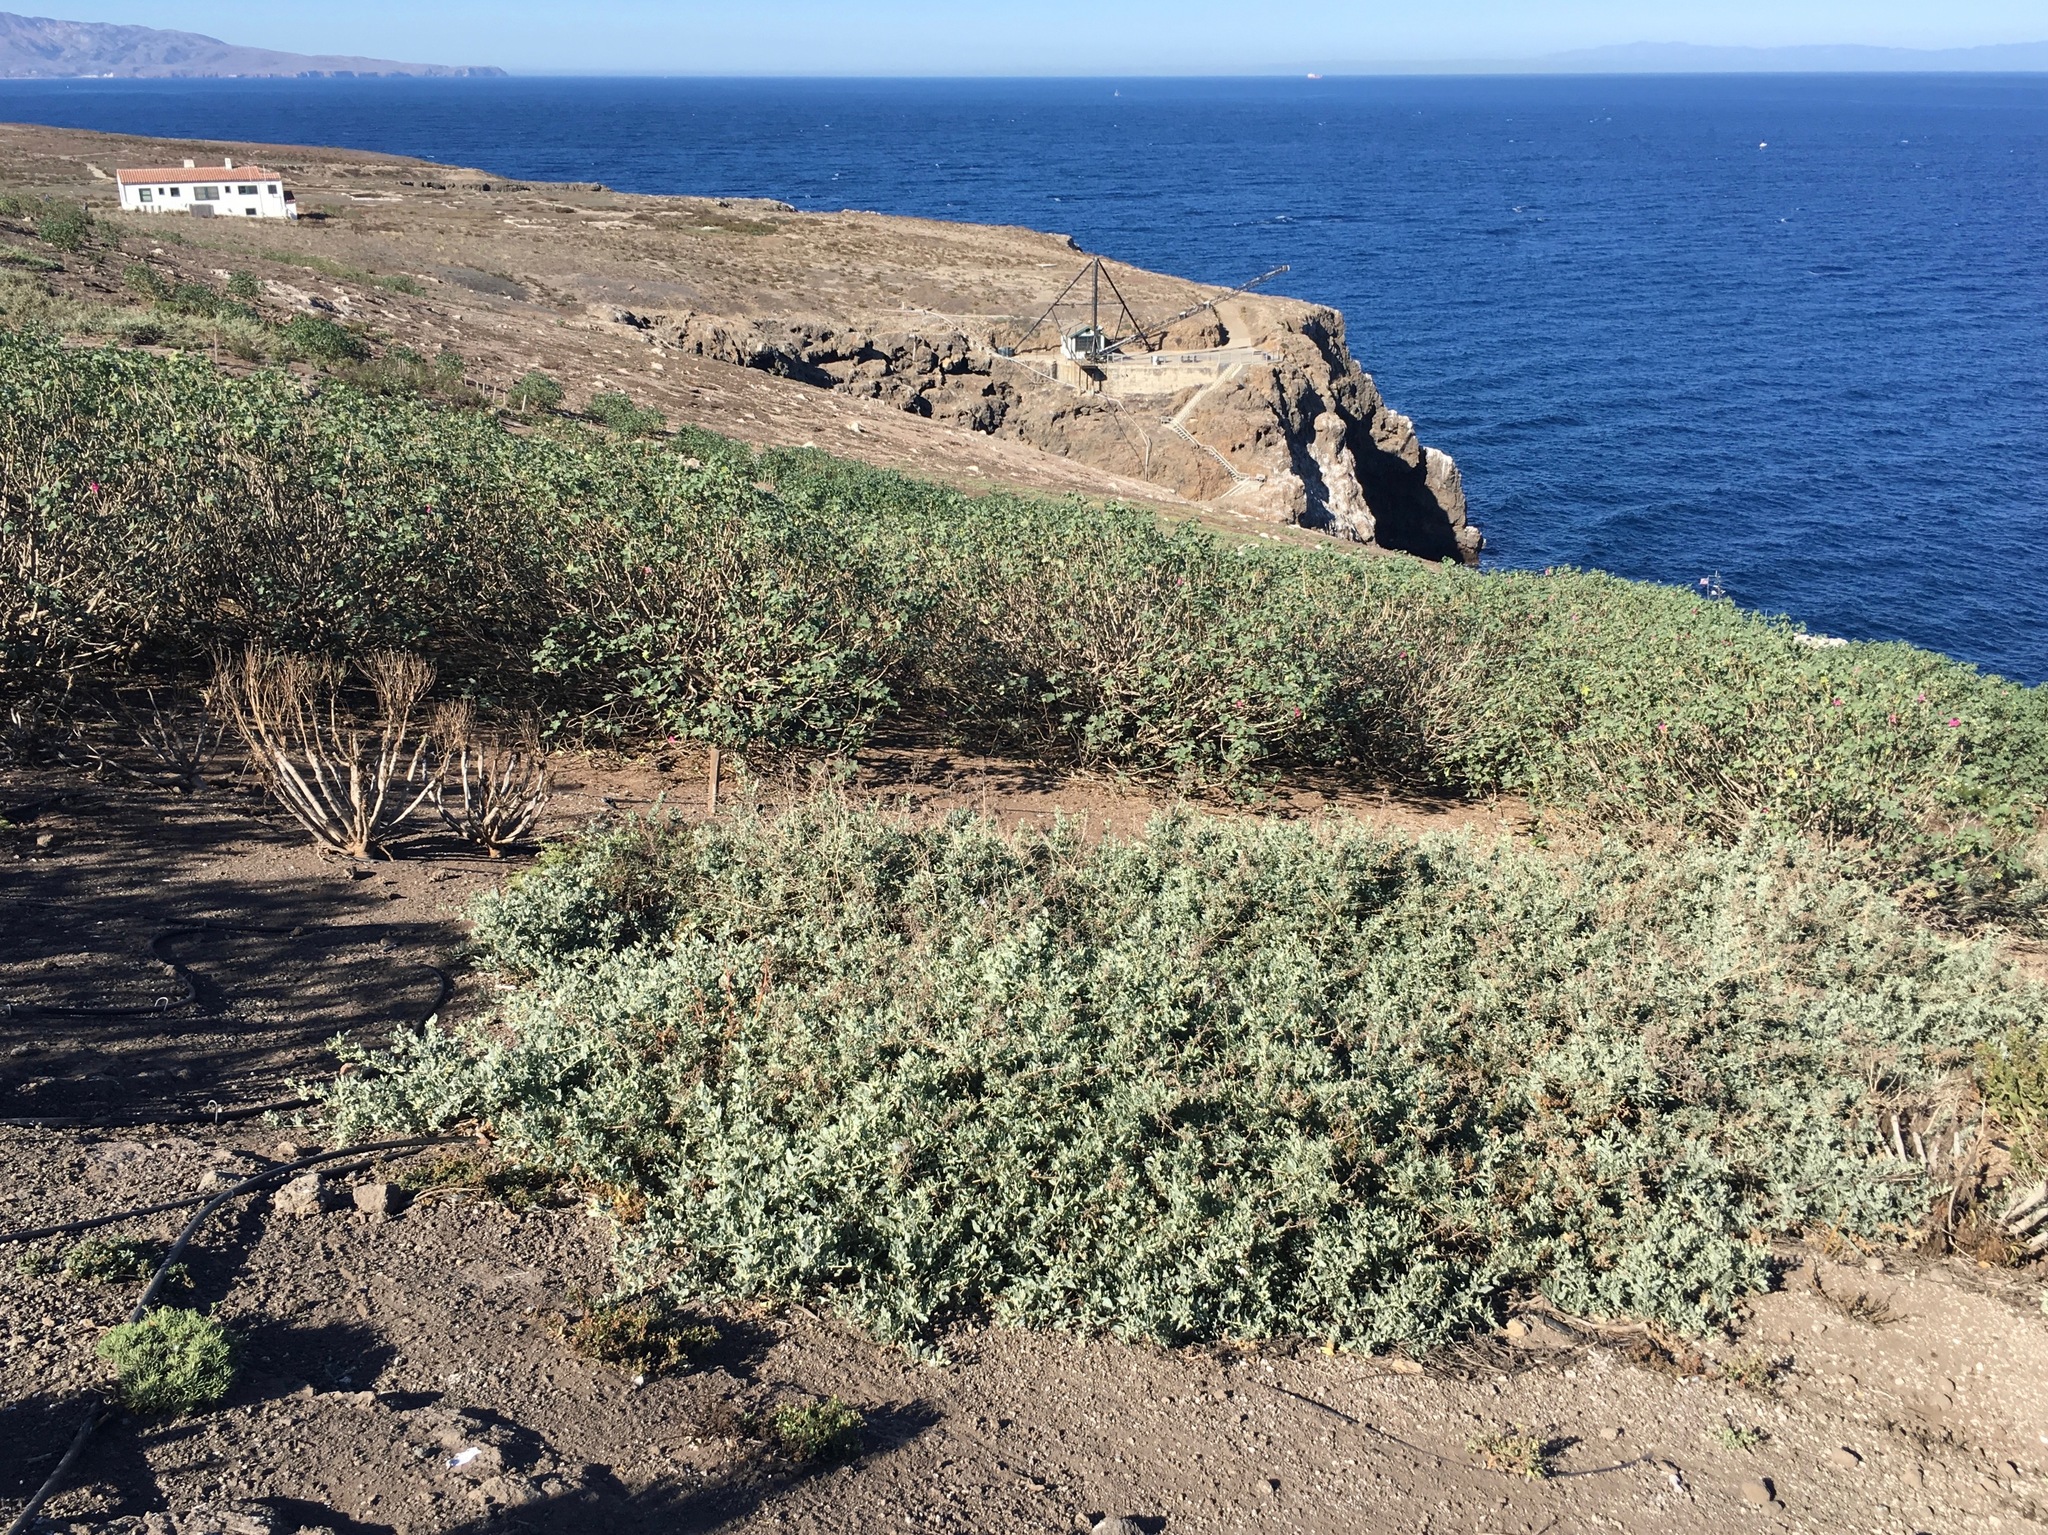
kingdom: Plantae
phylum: Tracheophyta
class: Magnoliopsida
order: Malvales
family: Malvaceae
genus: Malva
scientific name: Malva assurgentiflora
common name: Island mallow
